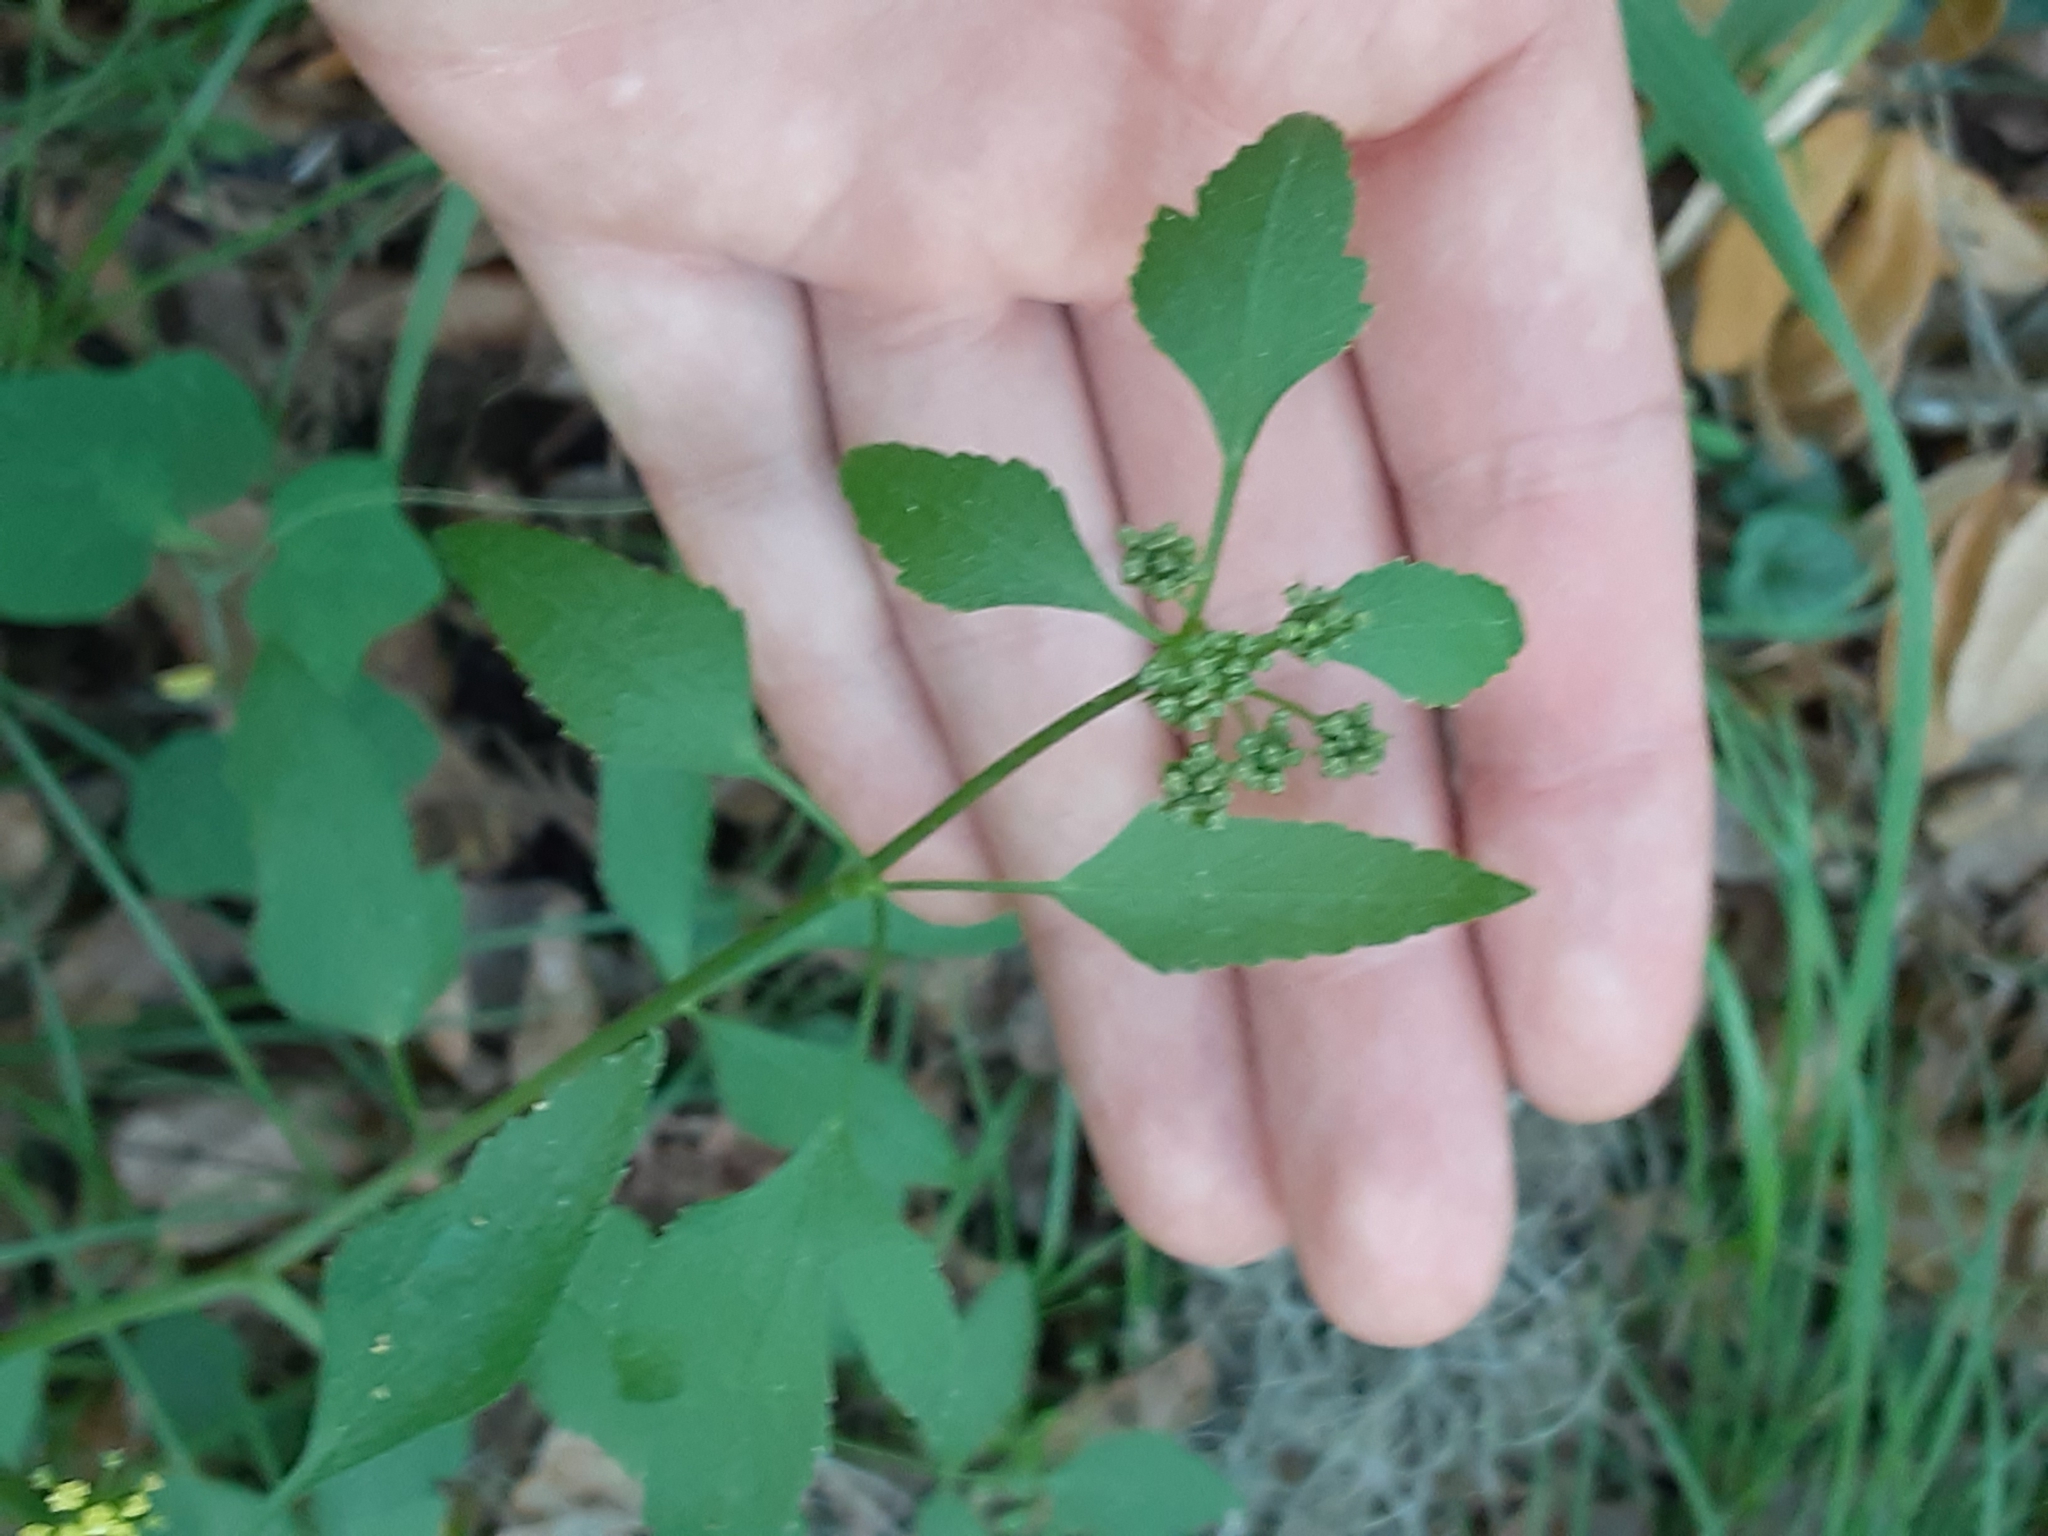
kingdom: Plantae
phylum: Tracheophyta
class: Magnoliopsida
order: Apiales
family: Apiaceae
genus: Zizia
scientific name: Zizia aurea
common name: Golden alexanders
